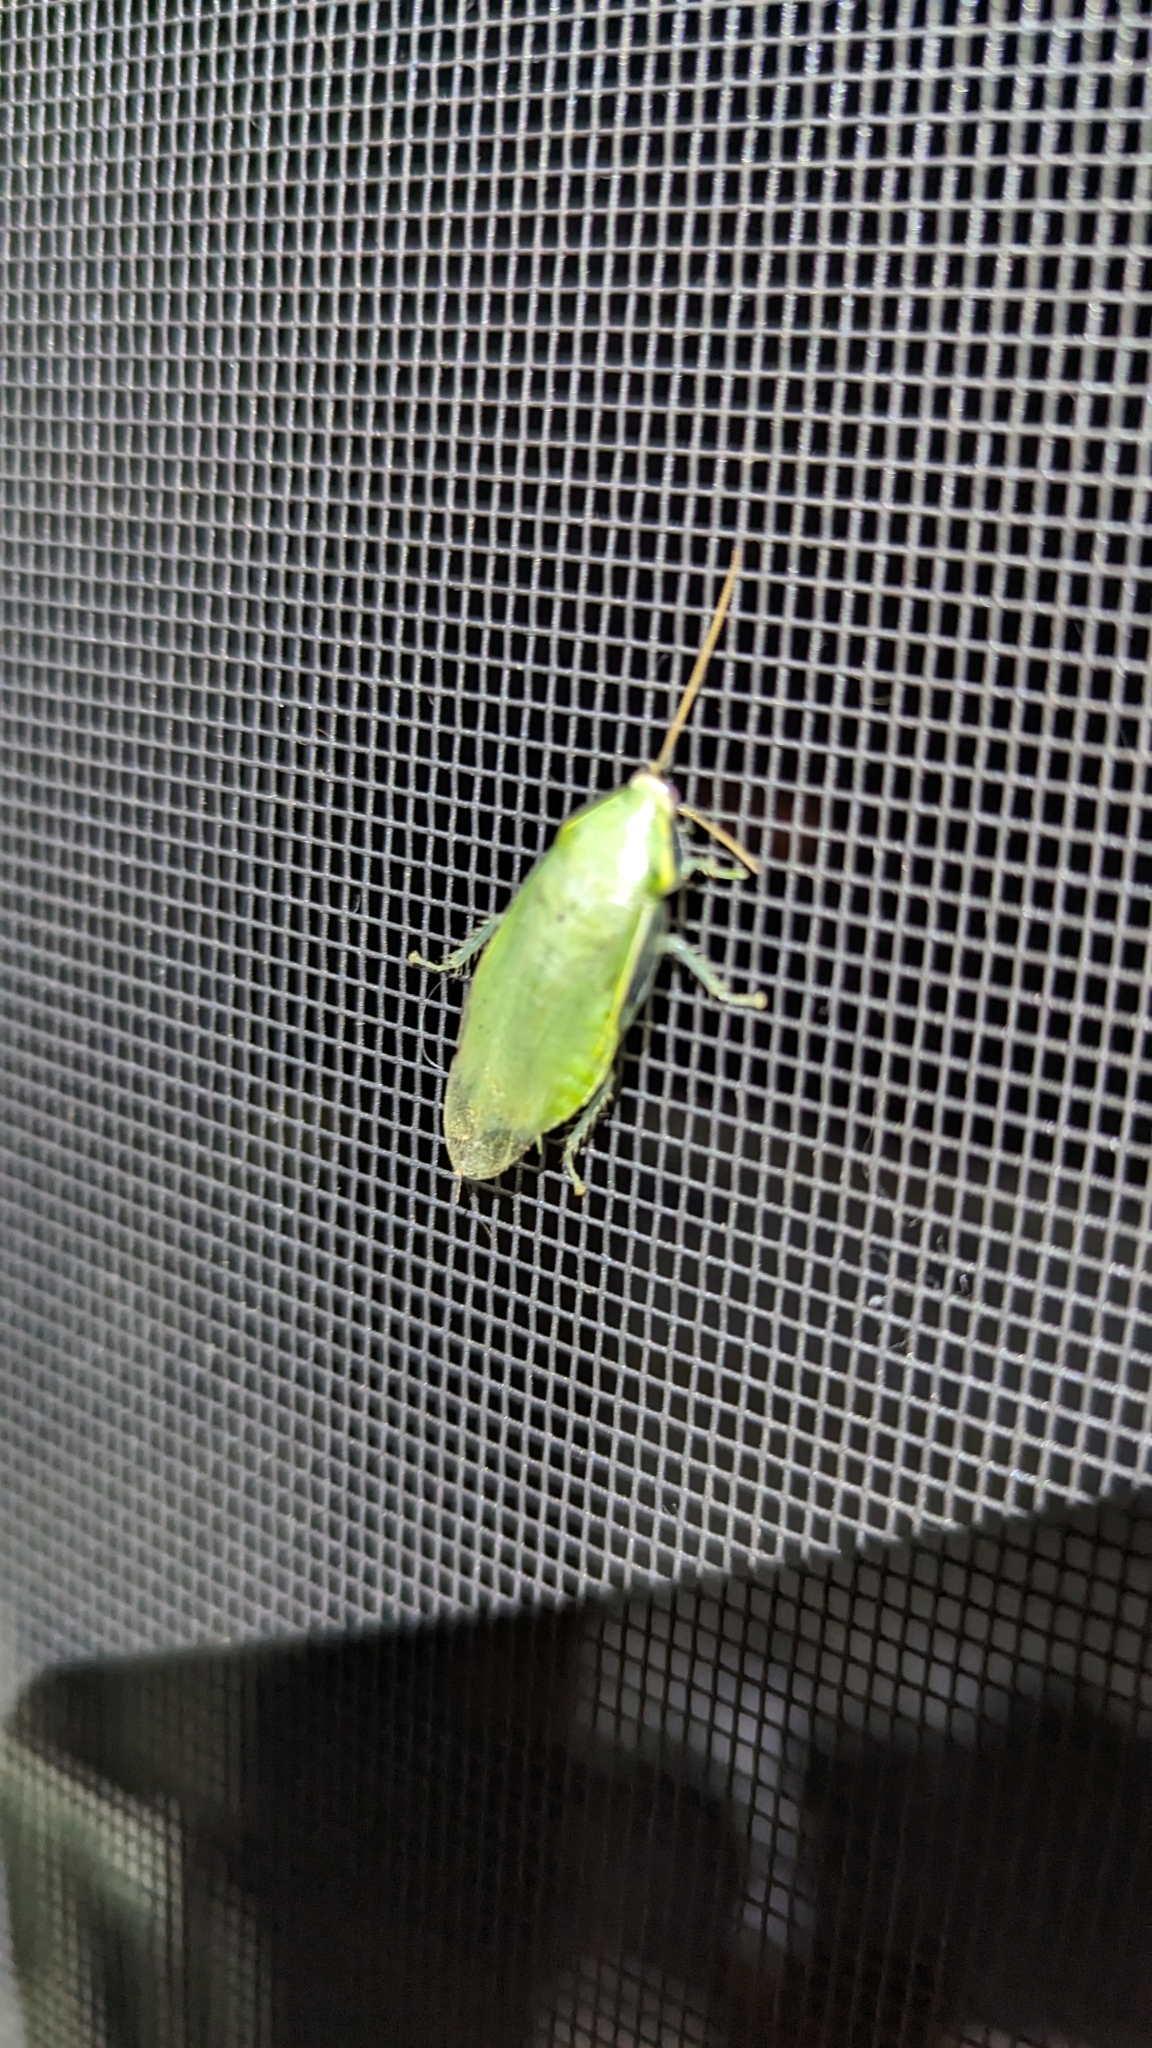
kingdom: Animalia
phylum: Arthropoda
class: Insecta
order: Blattodea
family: Blaberidae
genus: Panchlora
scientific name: Panchlora nivea
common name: Cuban cockroach
